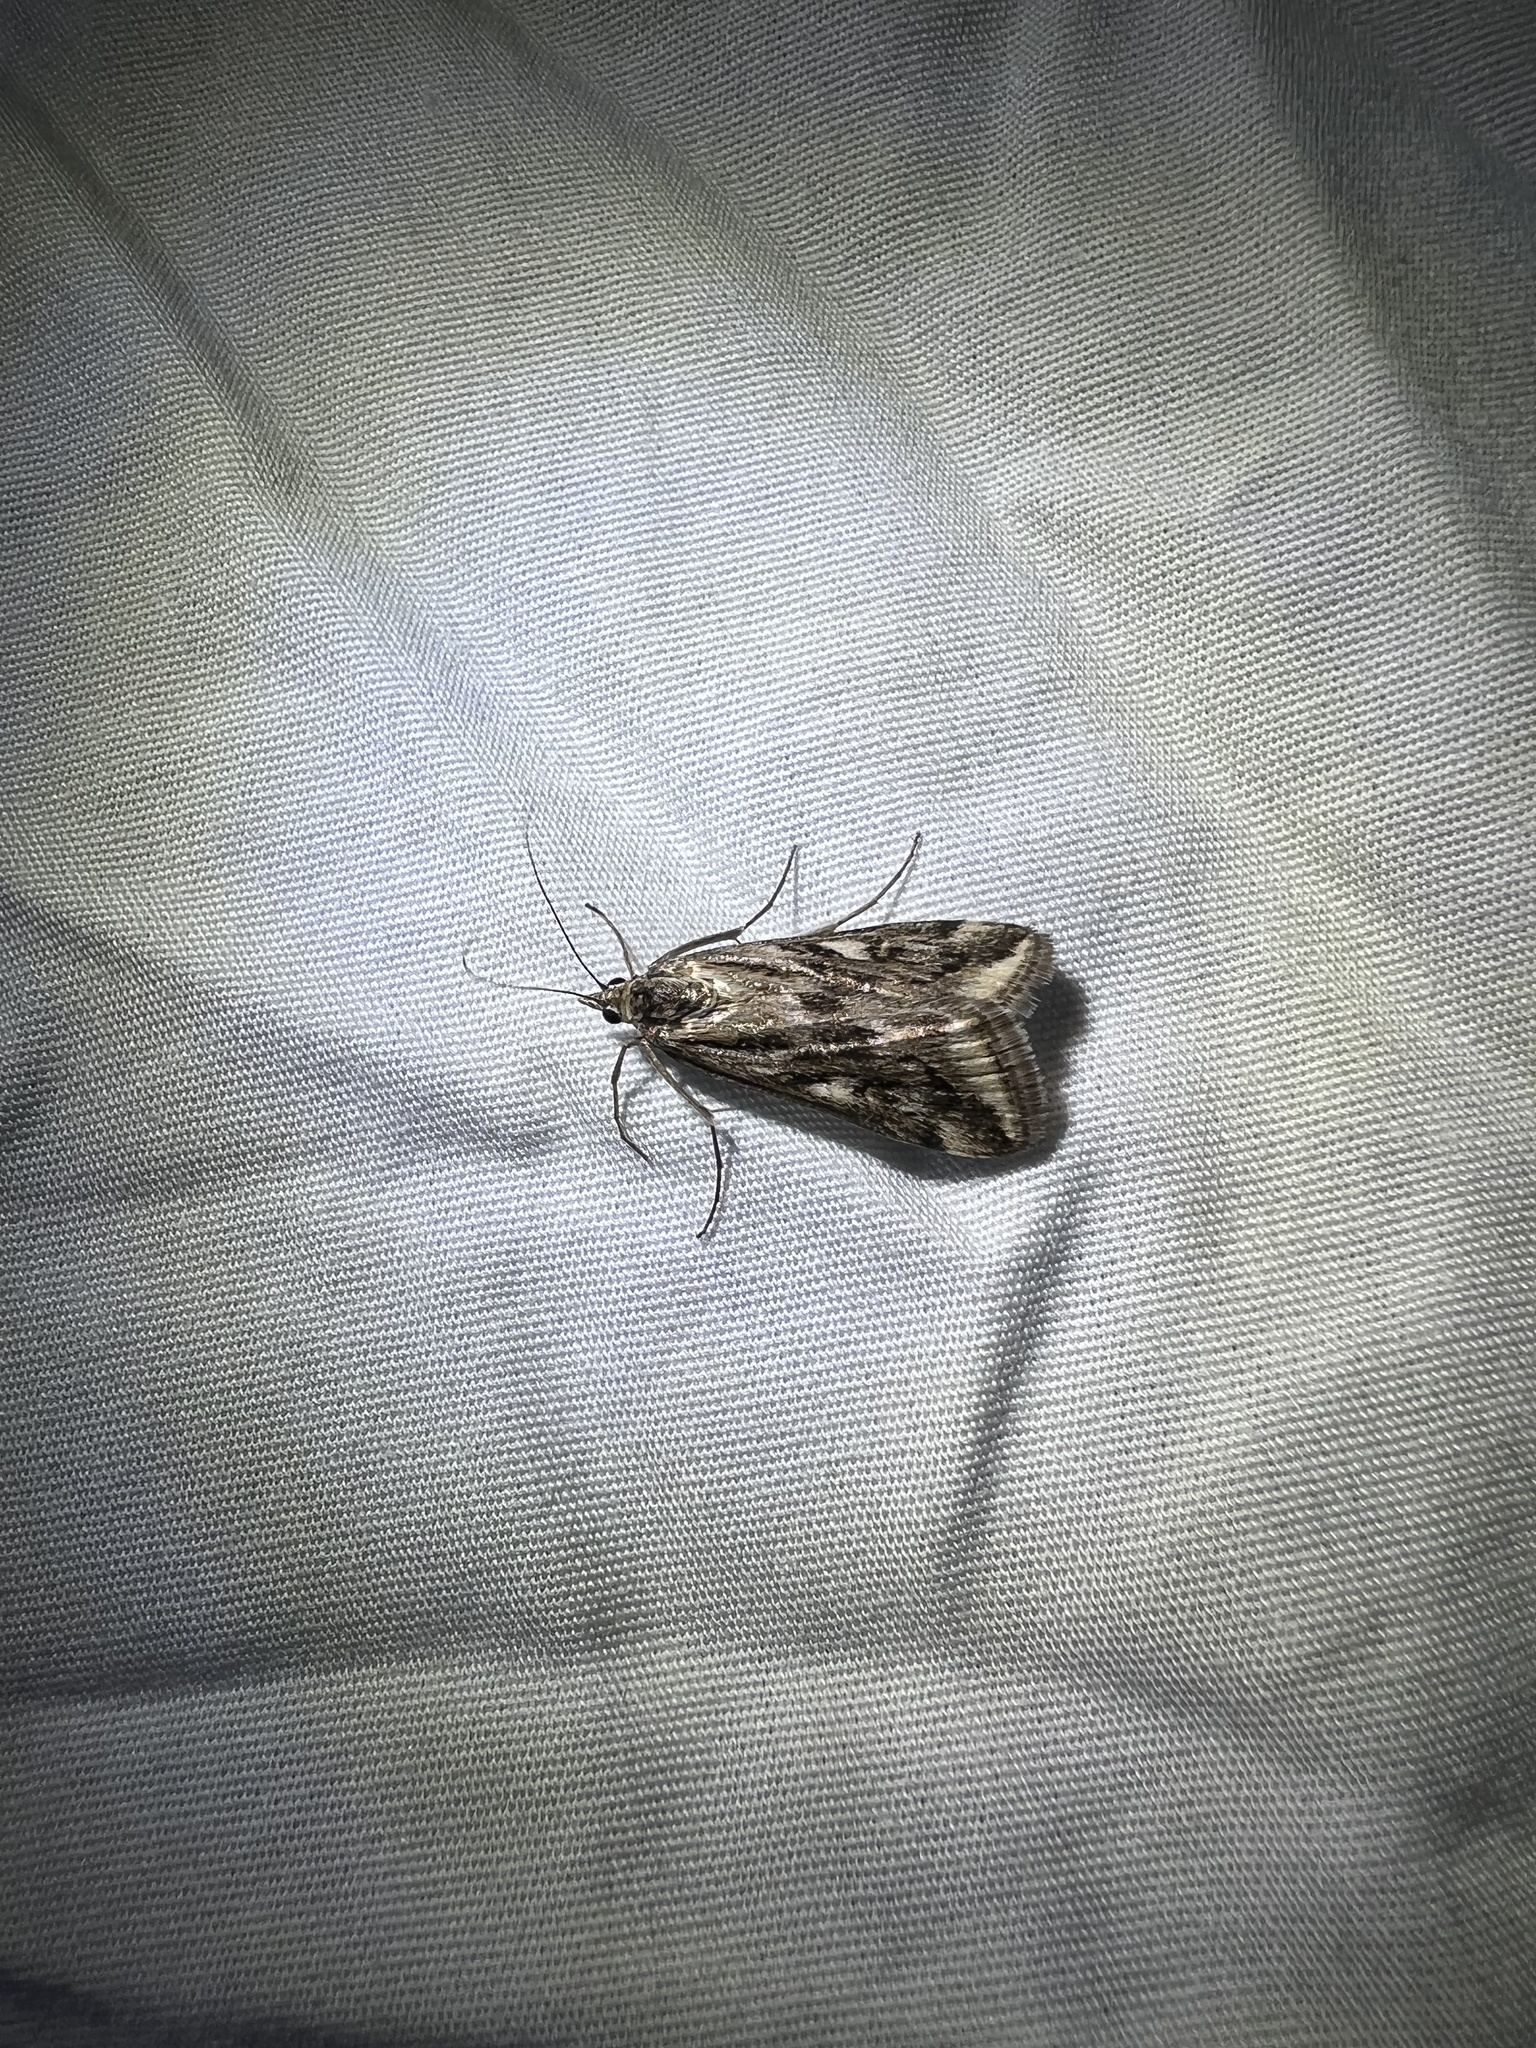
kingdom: Animalia
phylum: Arthropoda
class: Insecta
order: Lepidoptera
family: Crambidae
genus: Loxostege
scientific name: Loxostege cereralis
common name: Alfalfa webworm moth
